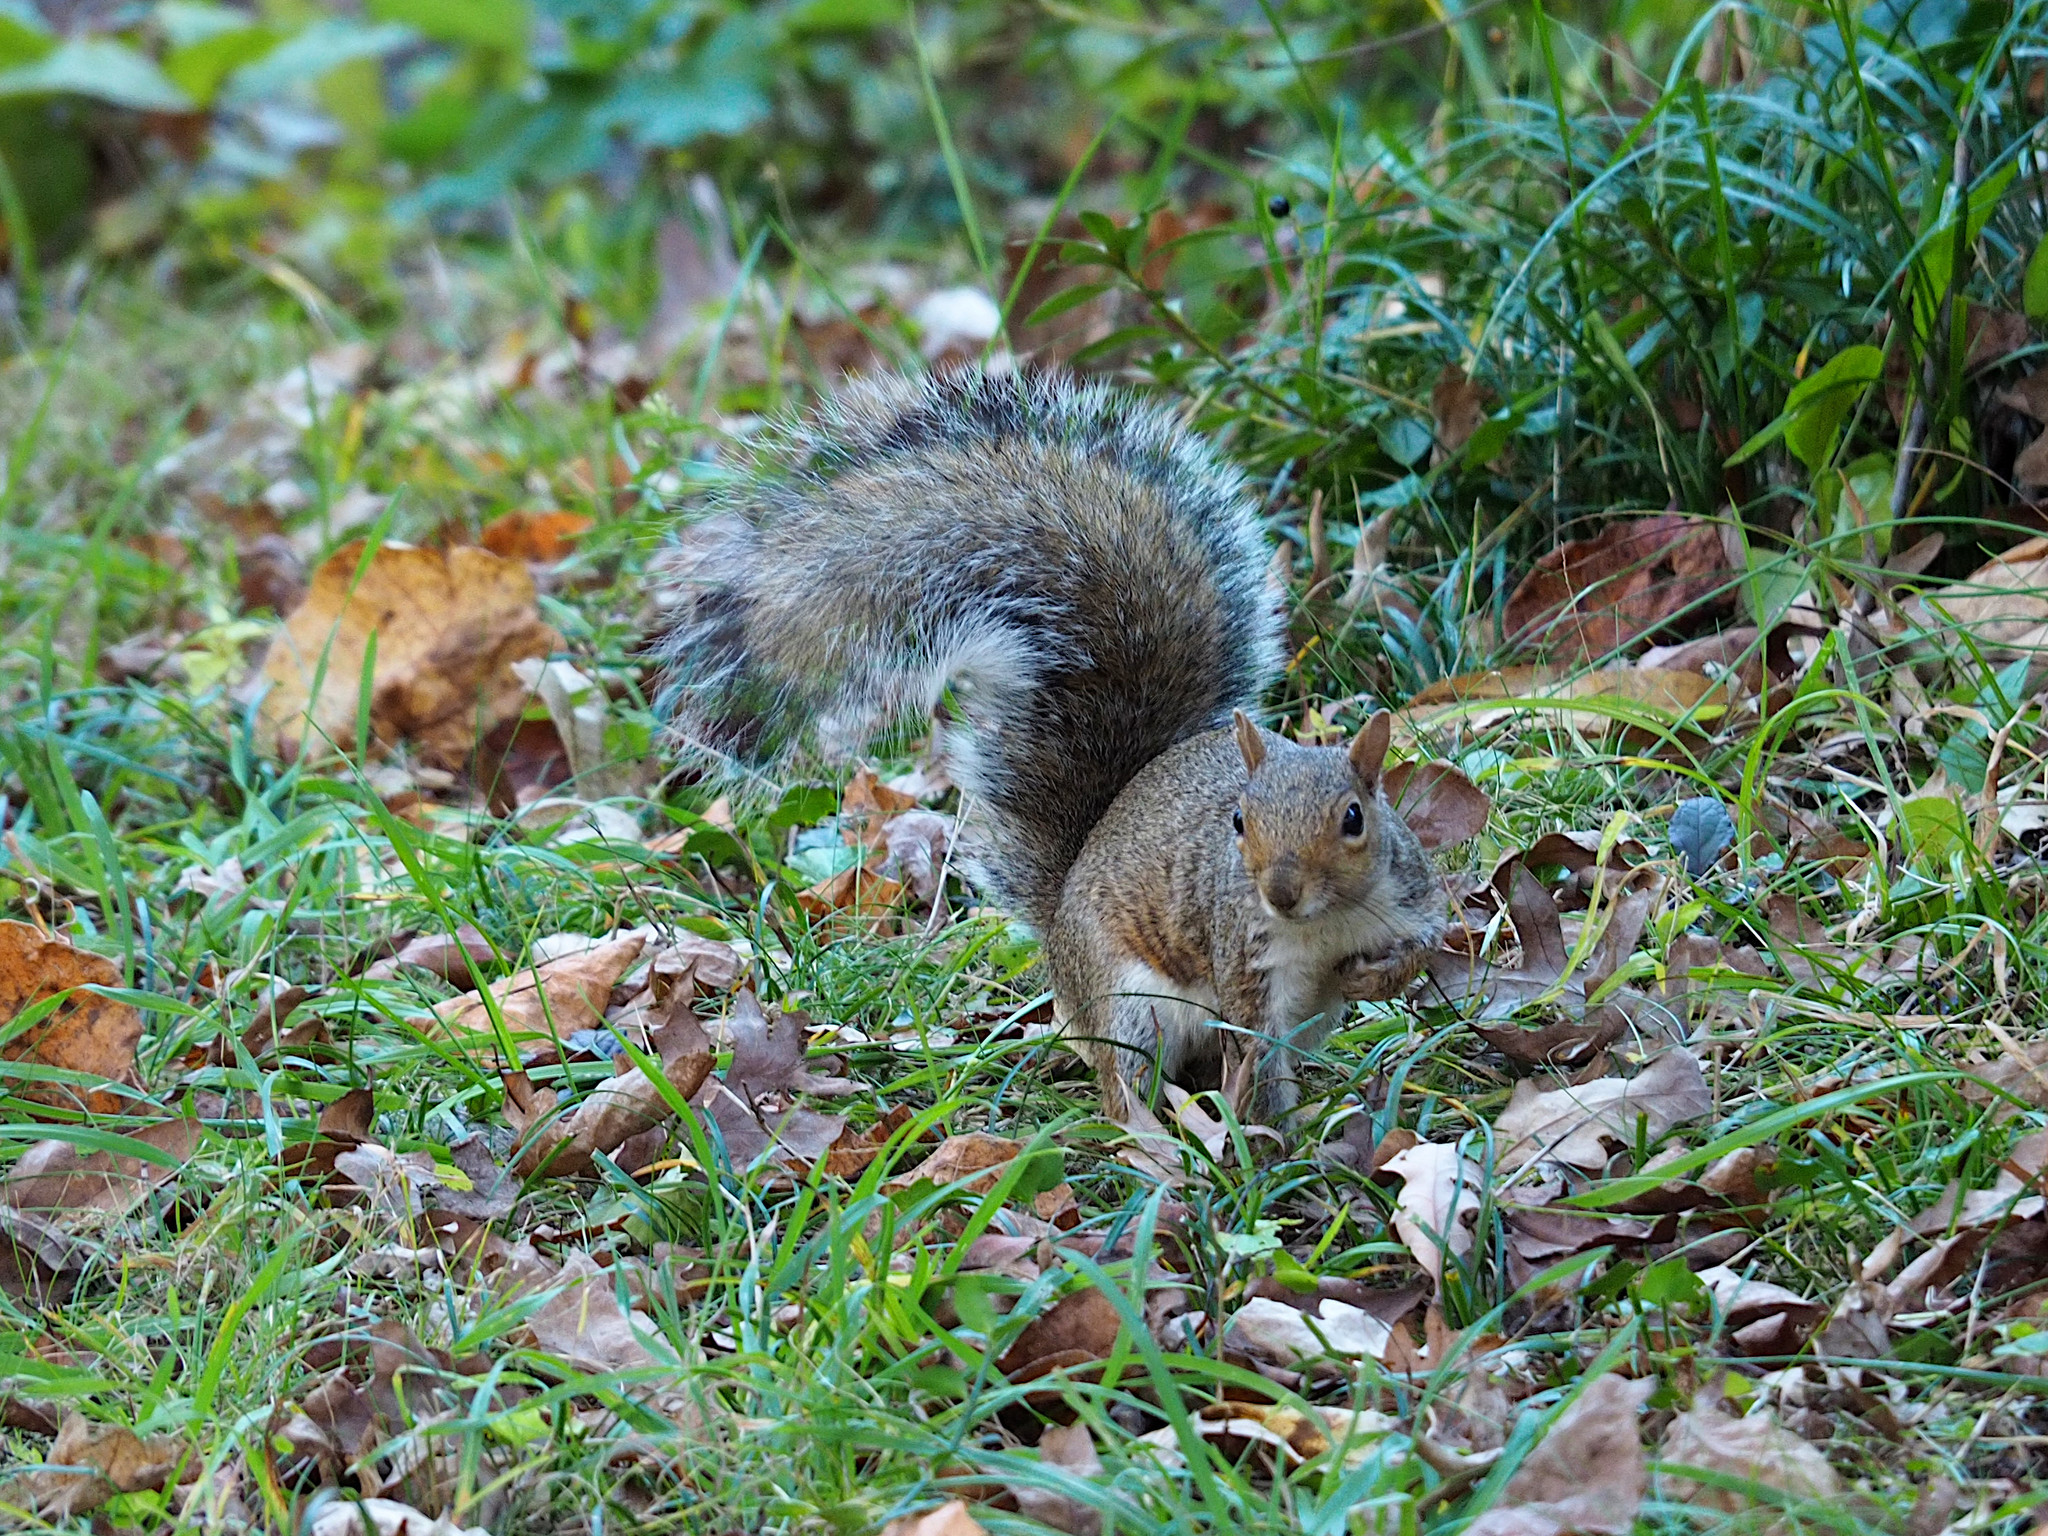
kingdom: Animalia
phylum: Chordata
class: Mammalia
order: Rodentia
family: Sciuridae
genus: Sciurus
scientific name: Sciurus carolinensis
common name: Eastern gray squirrel
